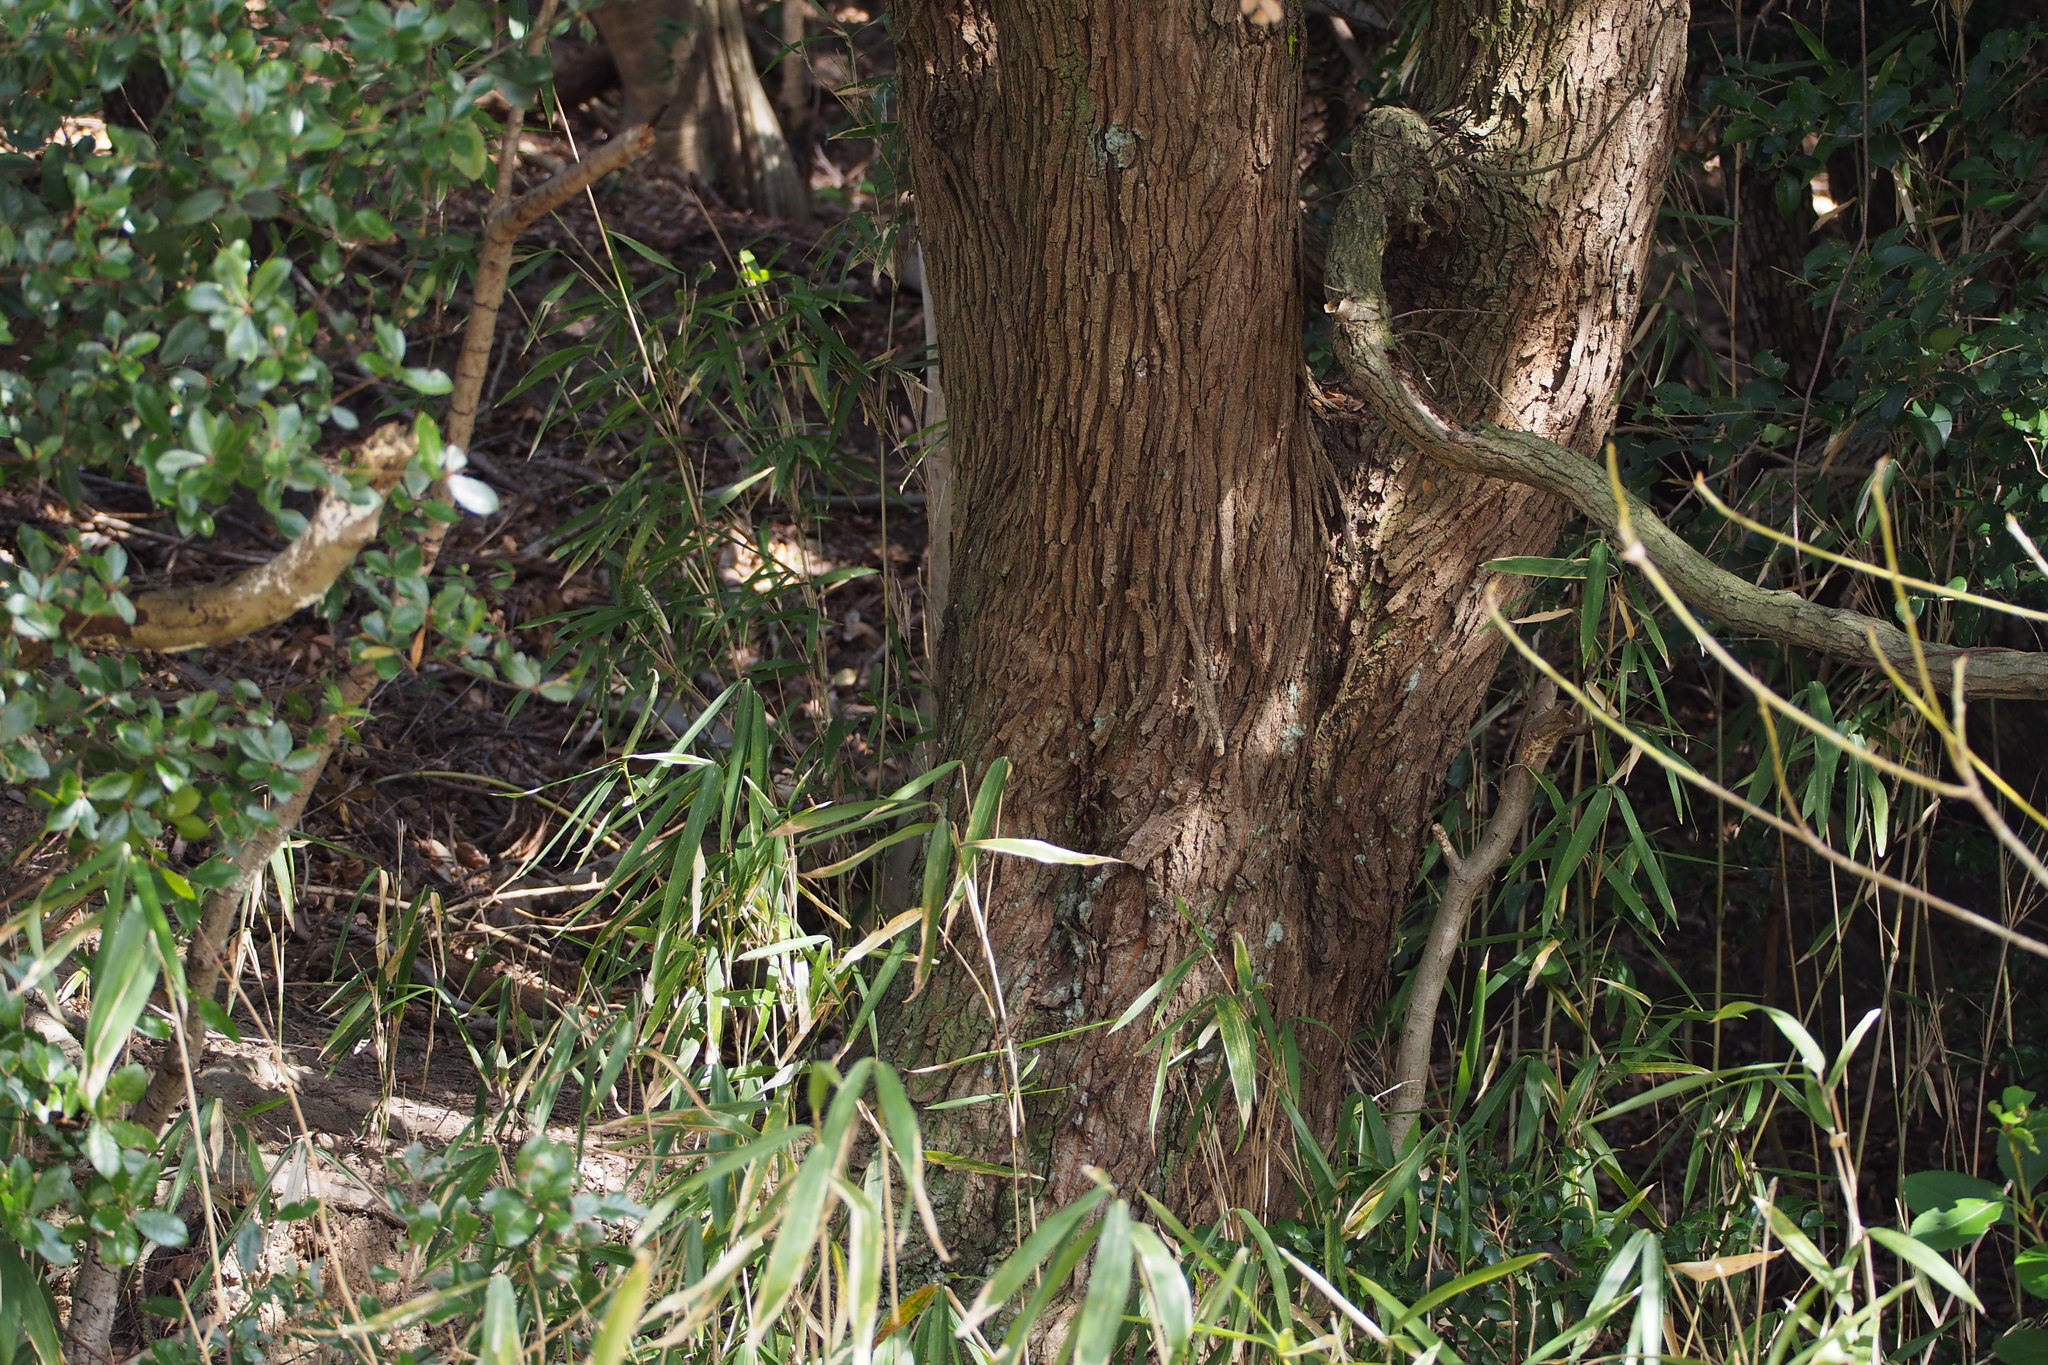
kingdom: Plantae
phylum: Tracheophyta
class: Magnoliopsida
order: Fagales
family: Fagaceae
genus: Quercus
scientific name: Quercus phillyreoides
